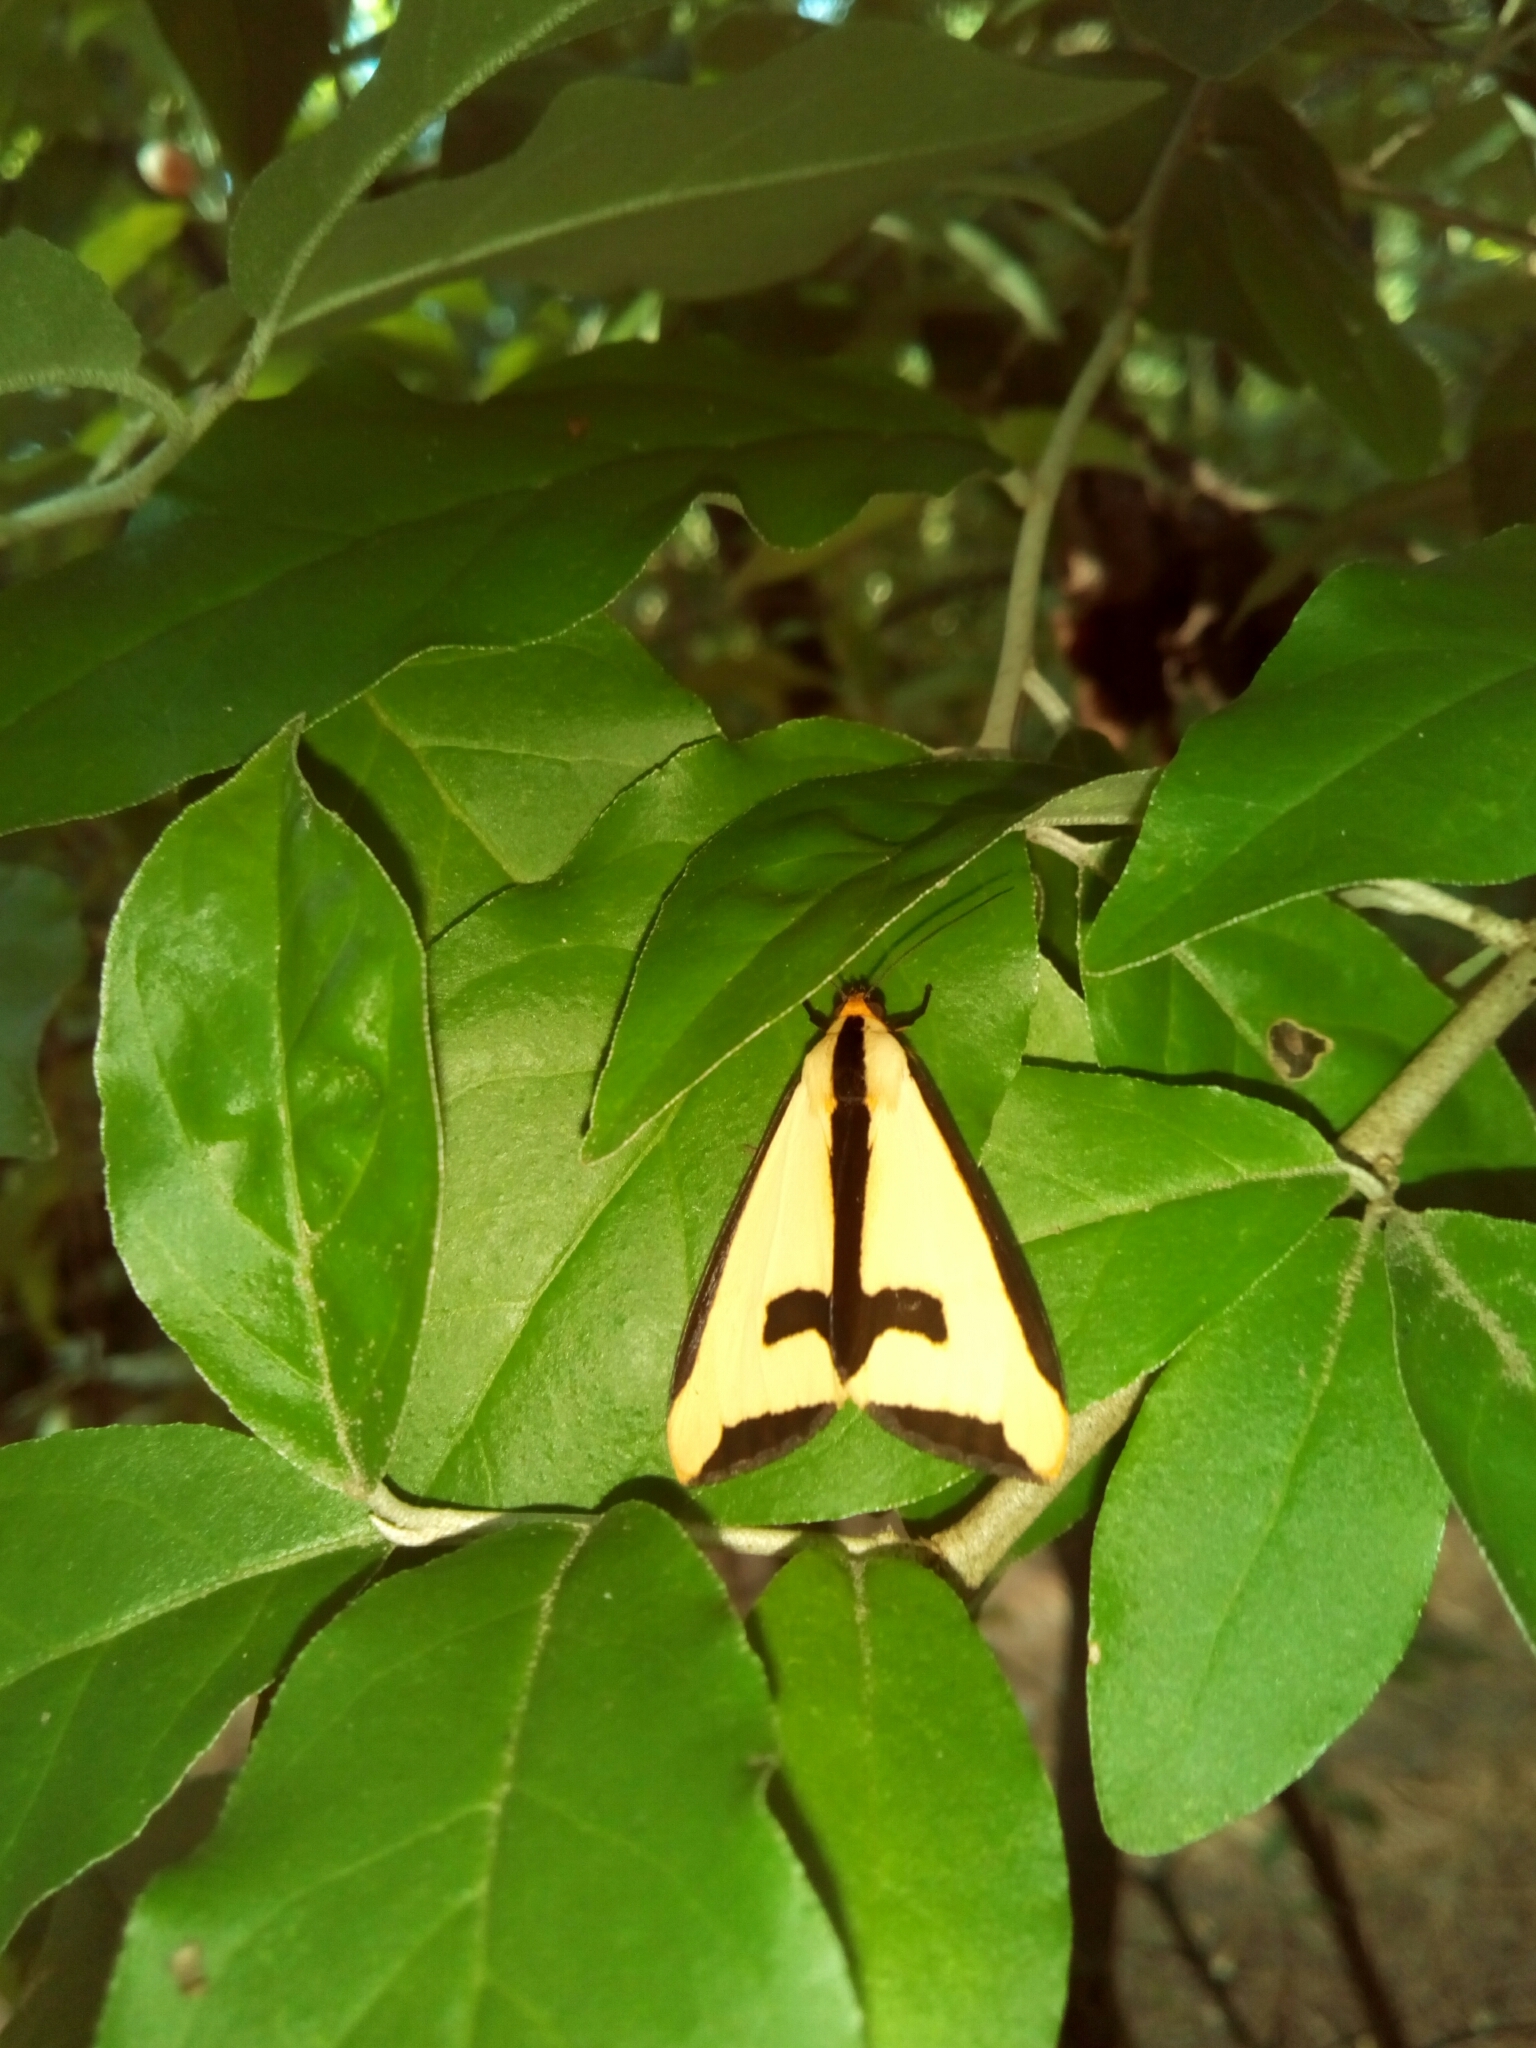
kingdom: Animalia
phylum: Arthropoda
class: Insecta
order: Lepidoptera
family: Erebidae
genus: Haploa
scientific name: Haploa clymene
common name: Clymene moth
